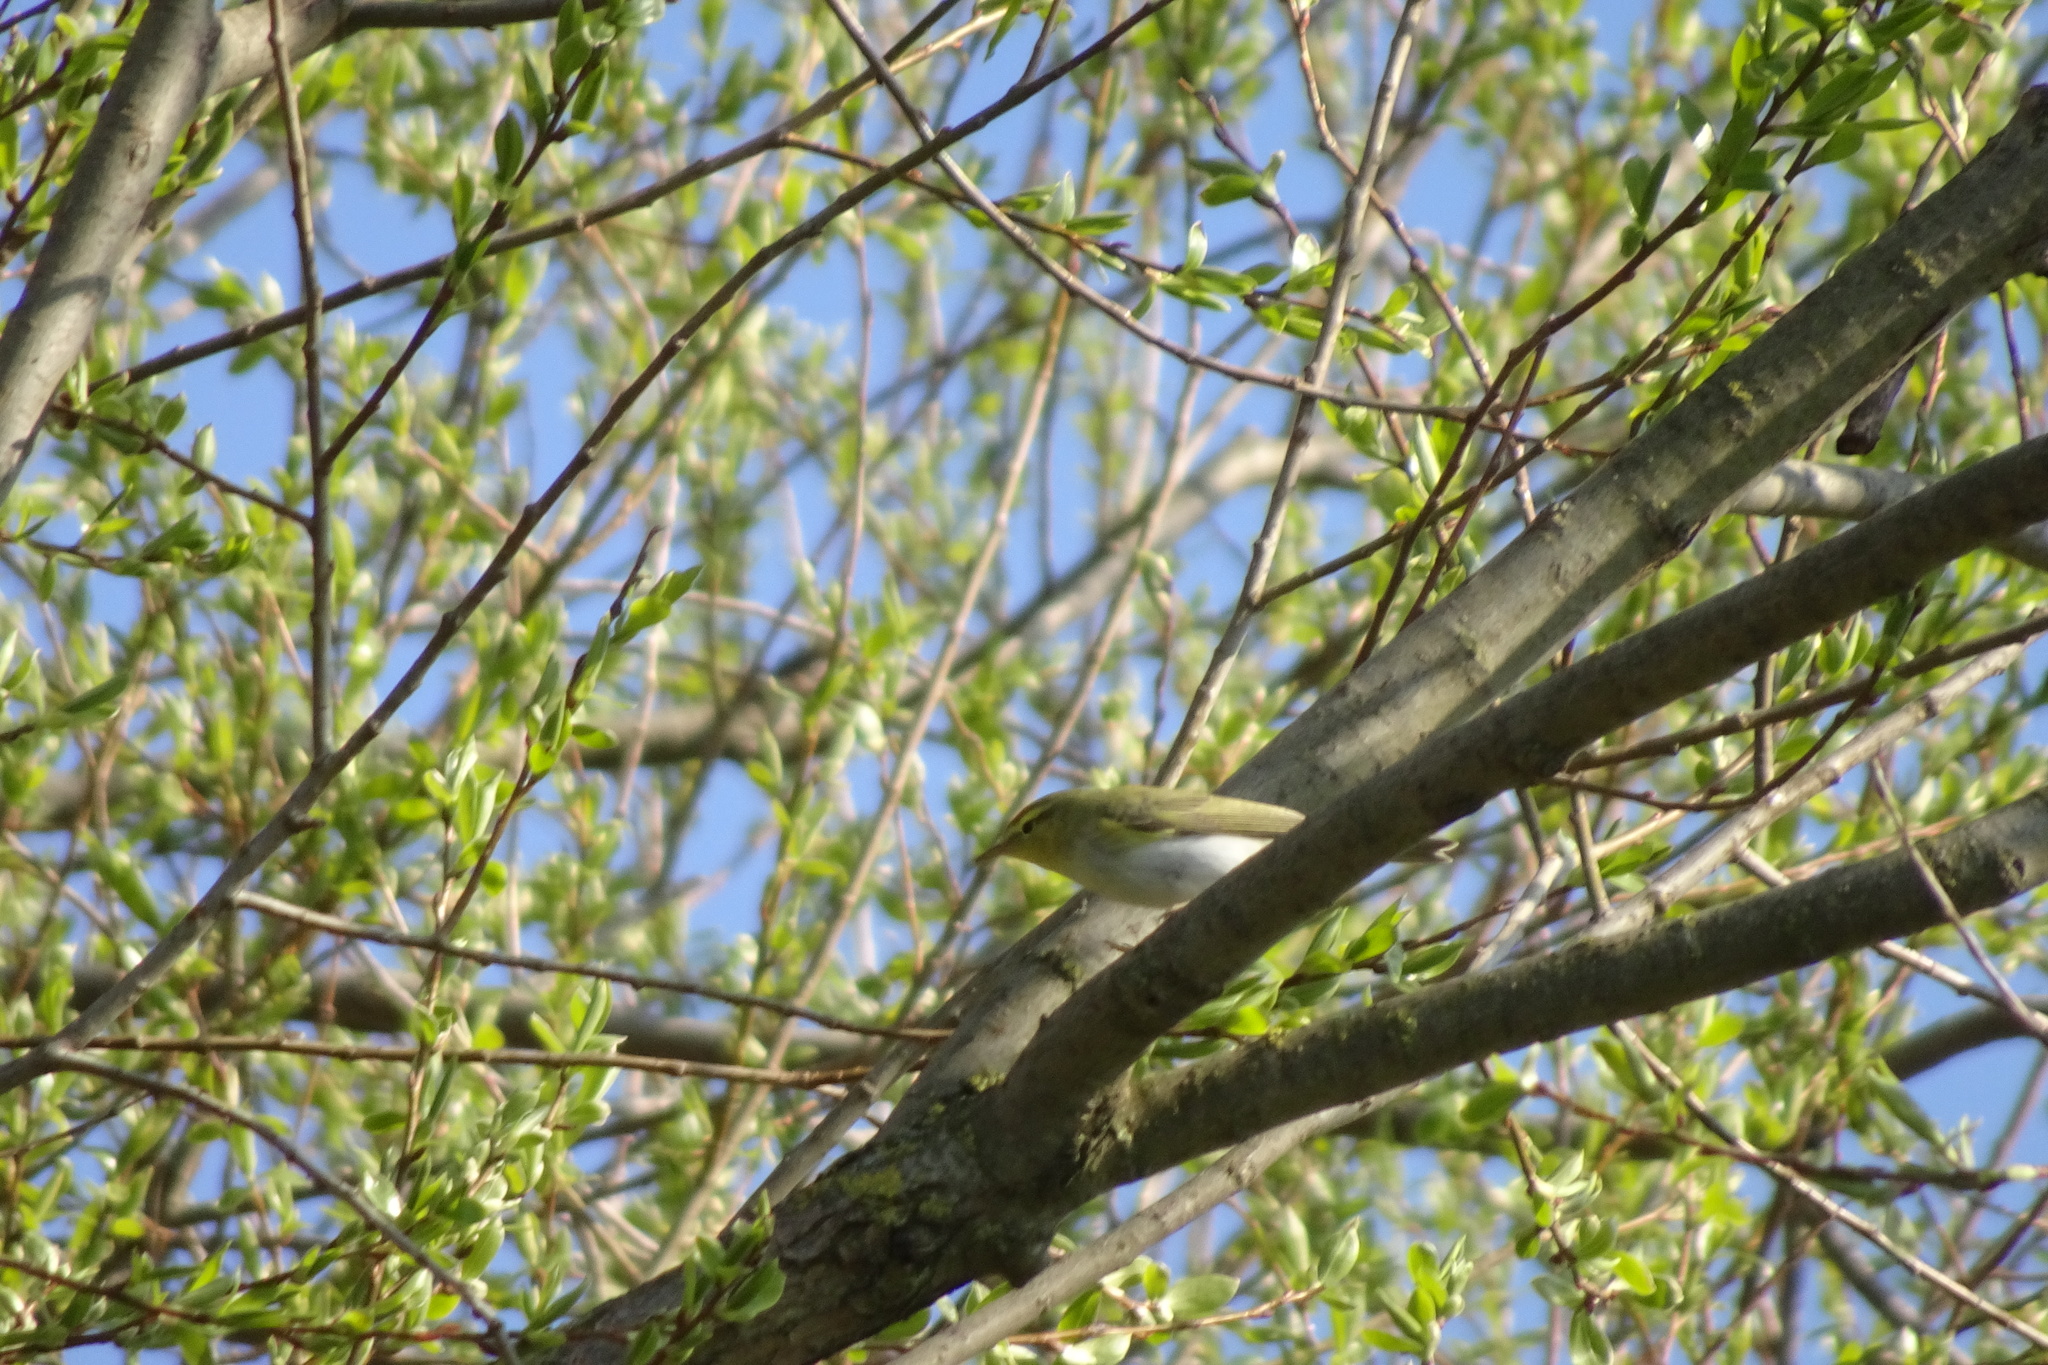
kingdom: Animalia
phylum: Chordata
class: Aves
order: Passeriformes
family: Phylloscopidae
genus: Phylloscopus
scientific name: Phylloscopus sibillatrix
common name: Wood warbler
